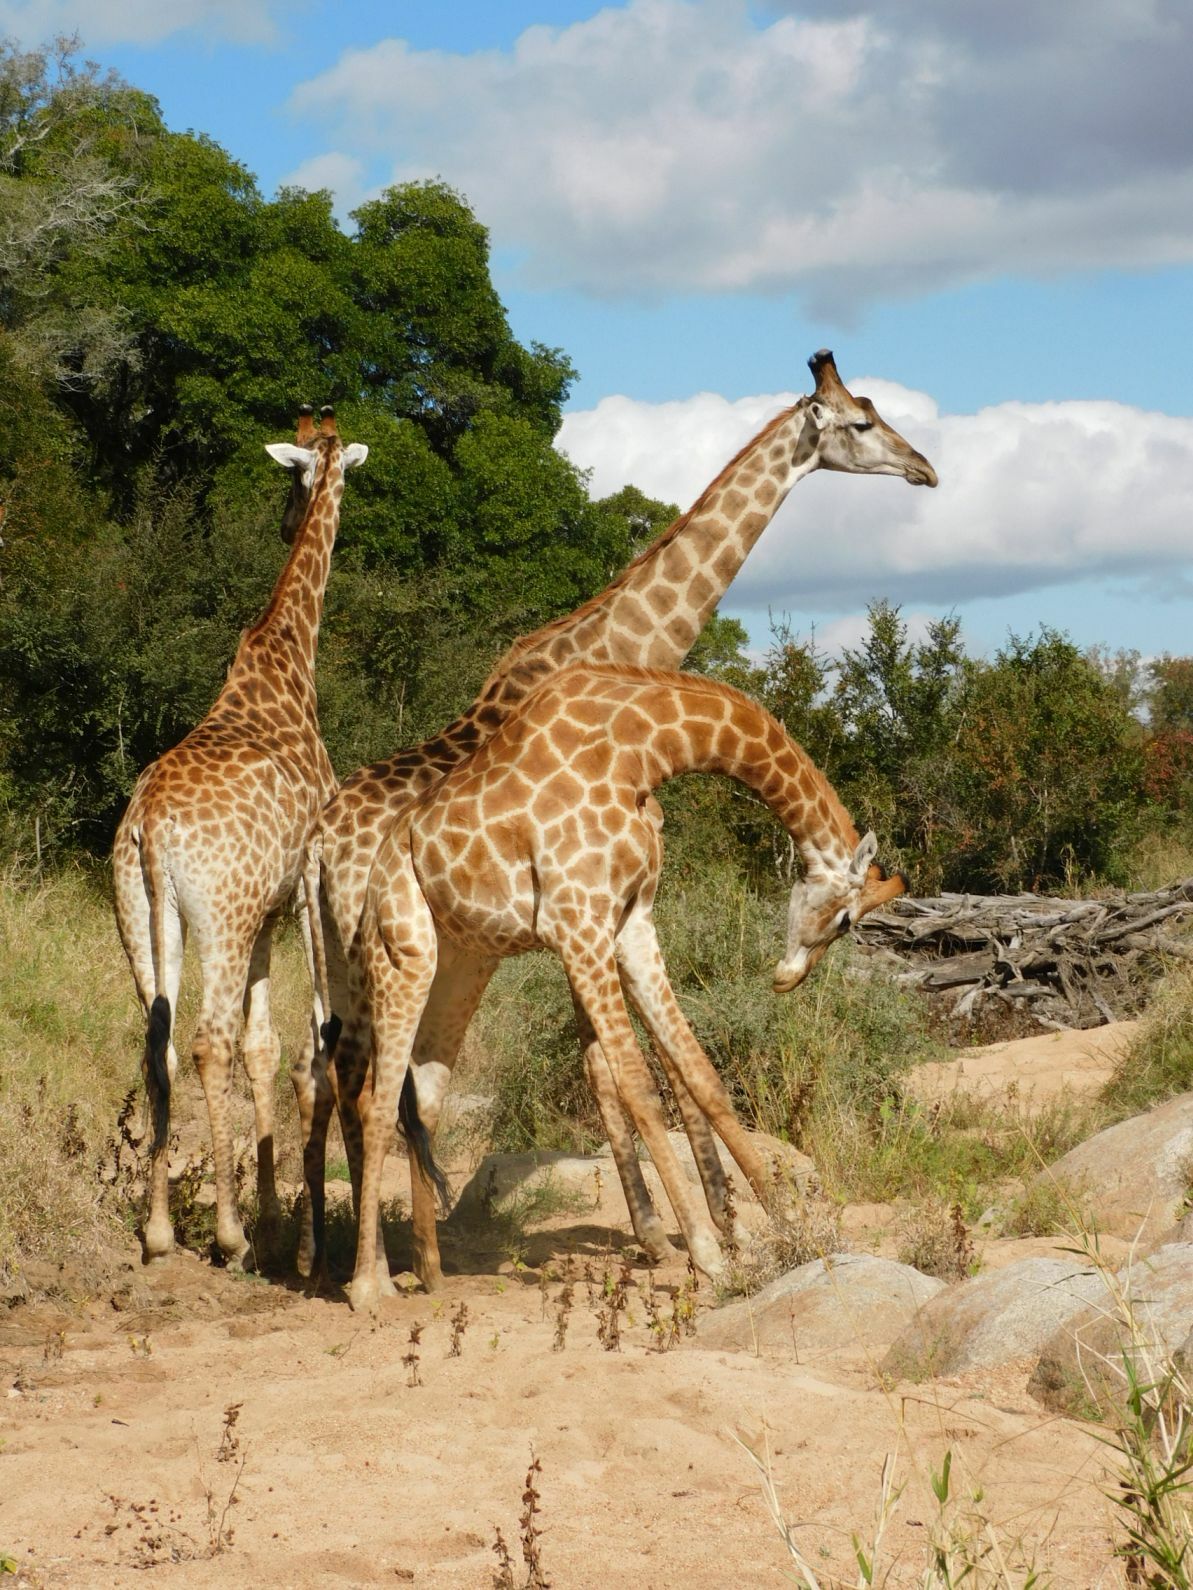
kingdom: Animalia
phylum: Chordata
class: Mammalia
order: Artiodactyla
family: Giraffidae
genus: Giraffa
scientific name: Giraffa giraffa
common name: Southern giraffe
